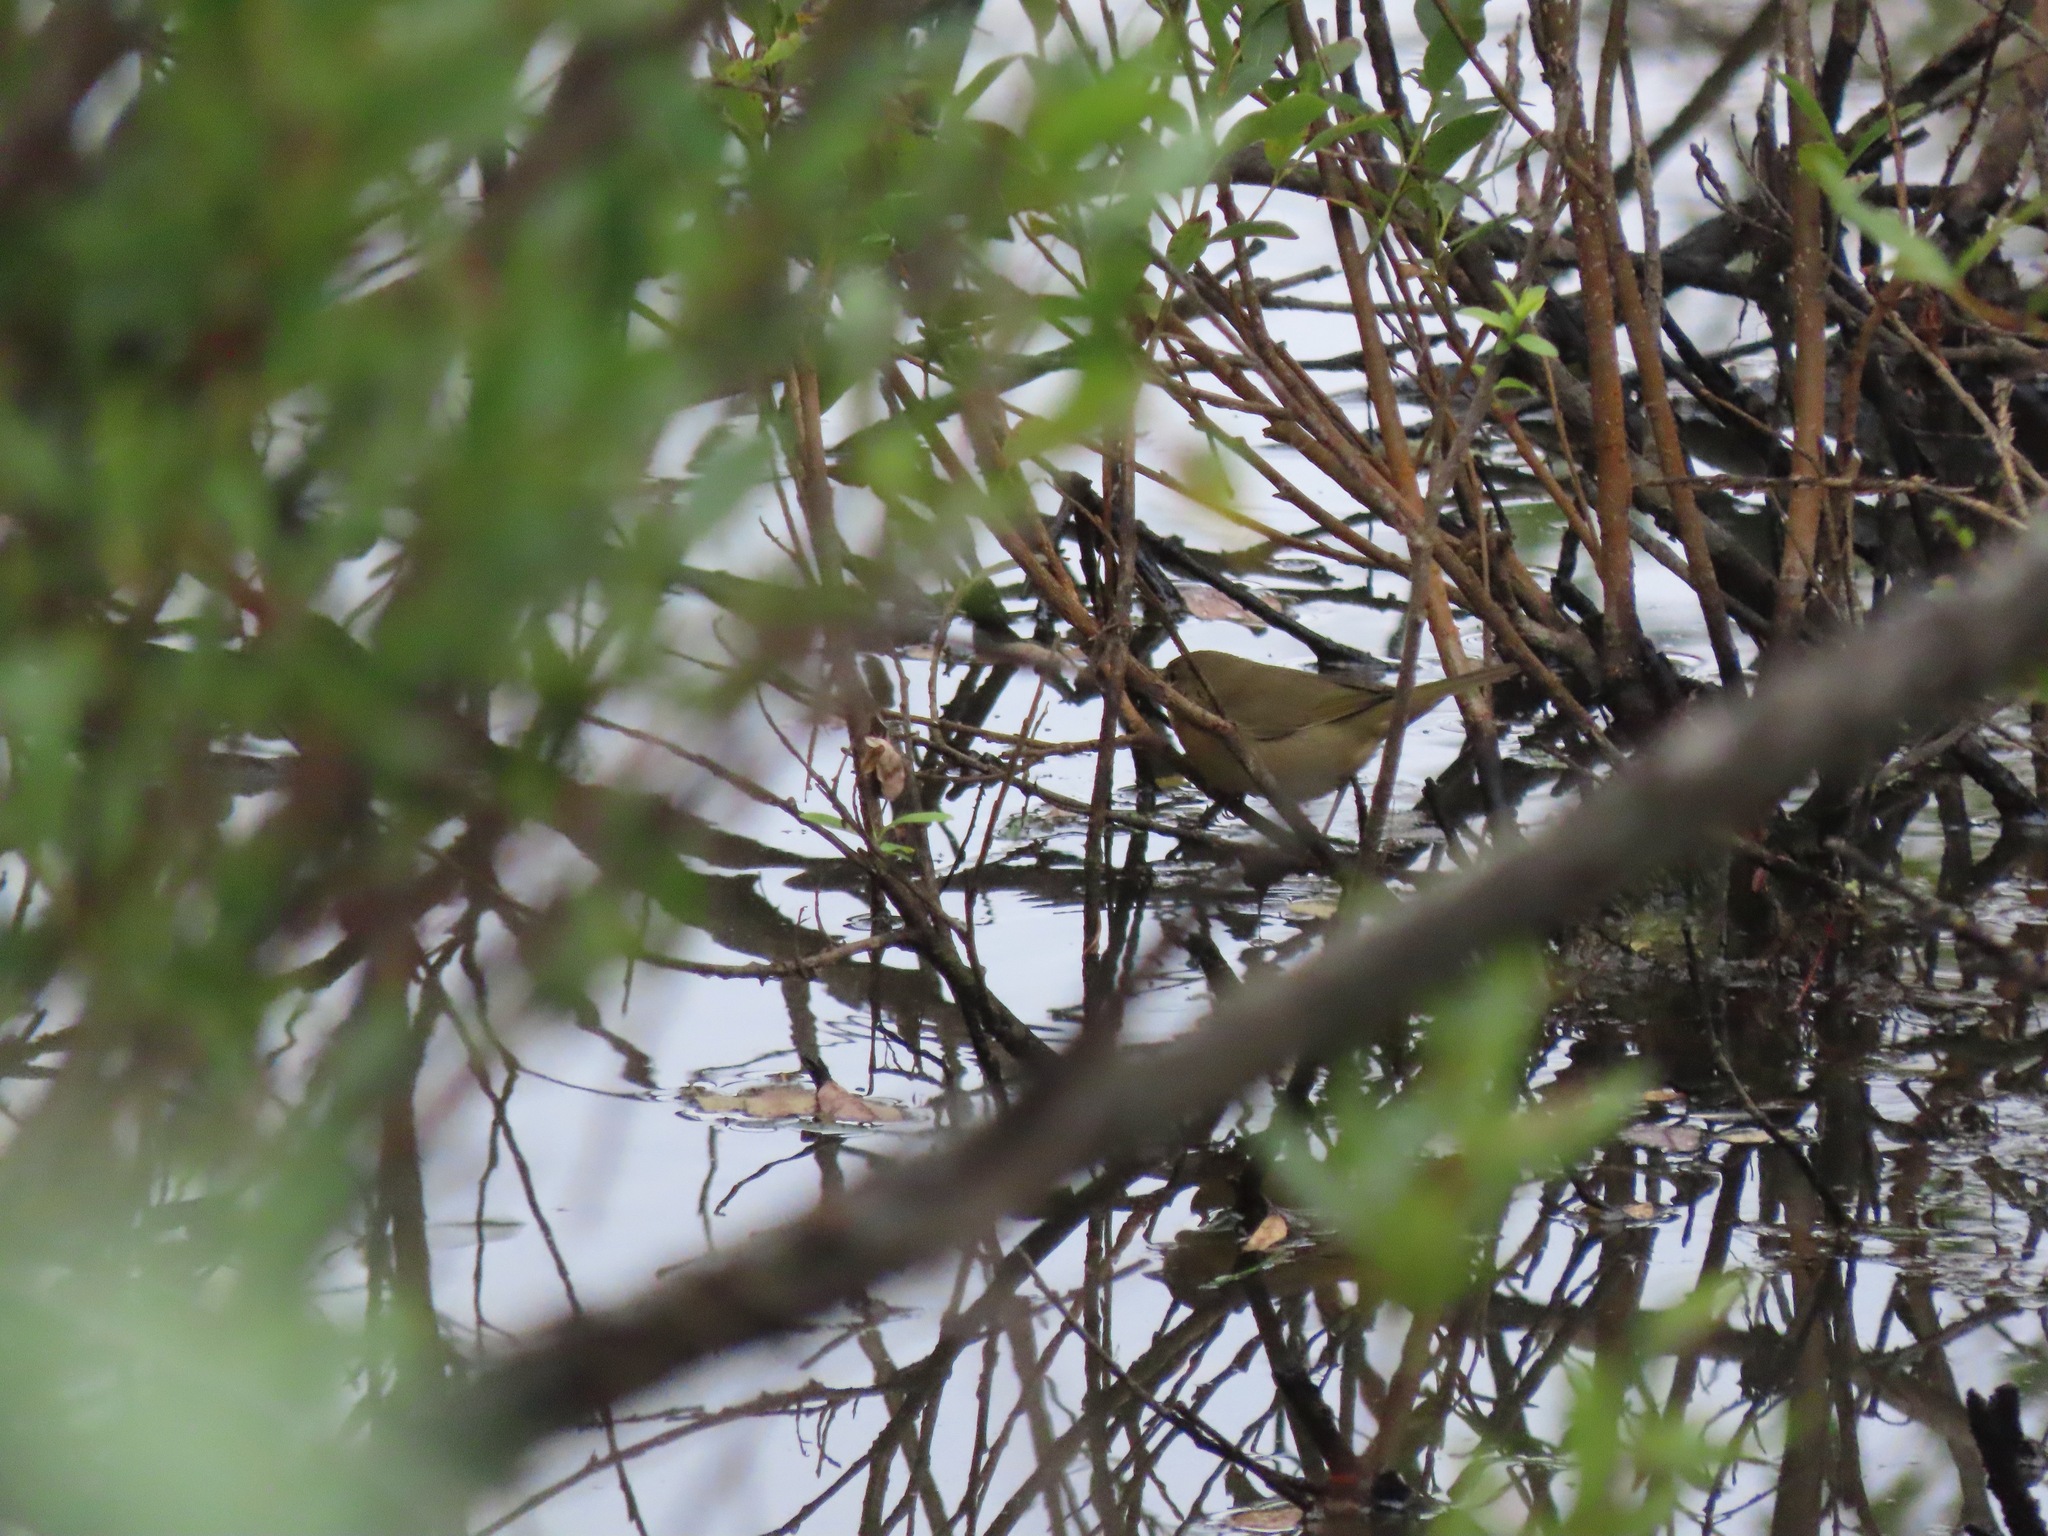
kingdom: Animalia
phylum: Chordata
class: Aves
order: Passeriformes
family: Parulidae
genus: Geothlypis
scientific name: Geothlypis trichas
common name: Common yellowthroat
